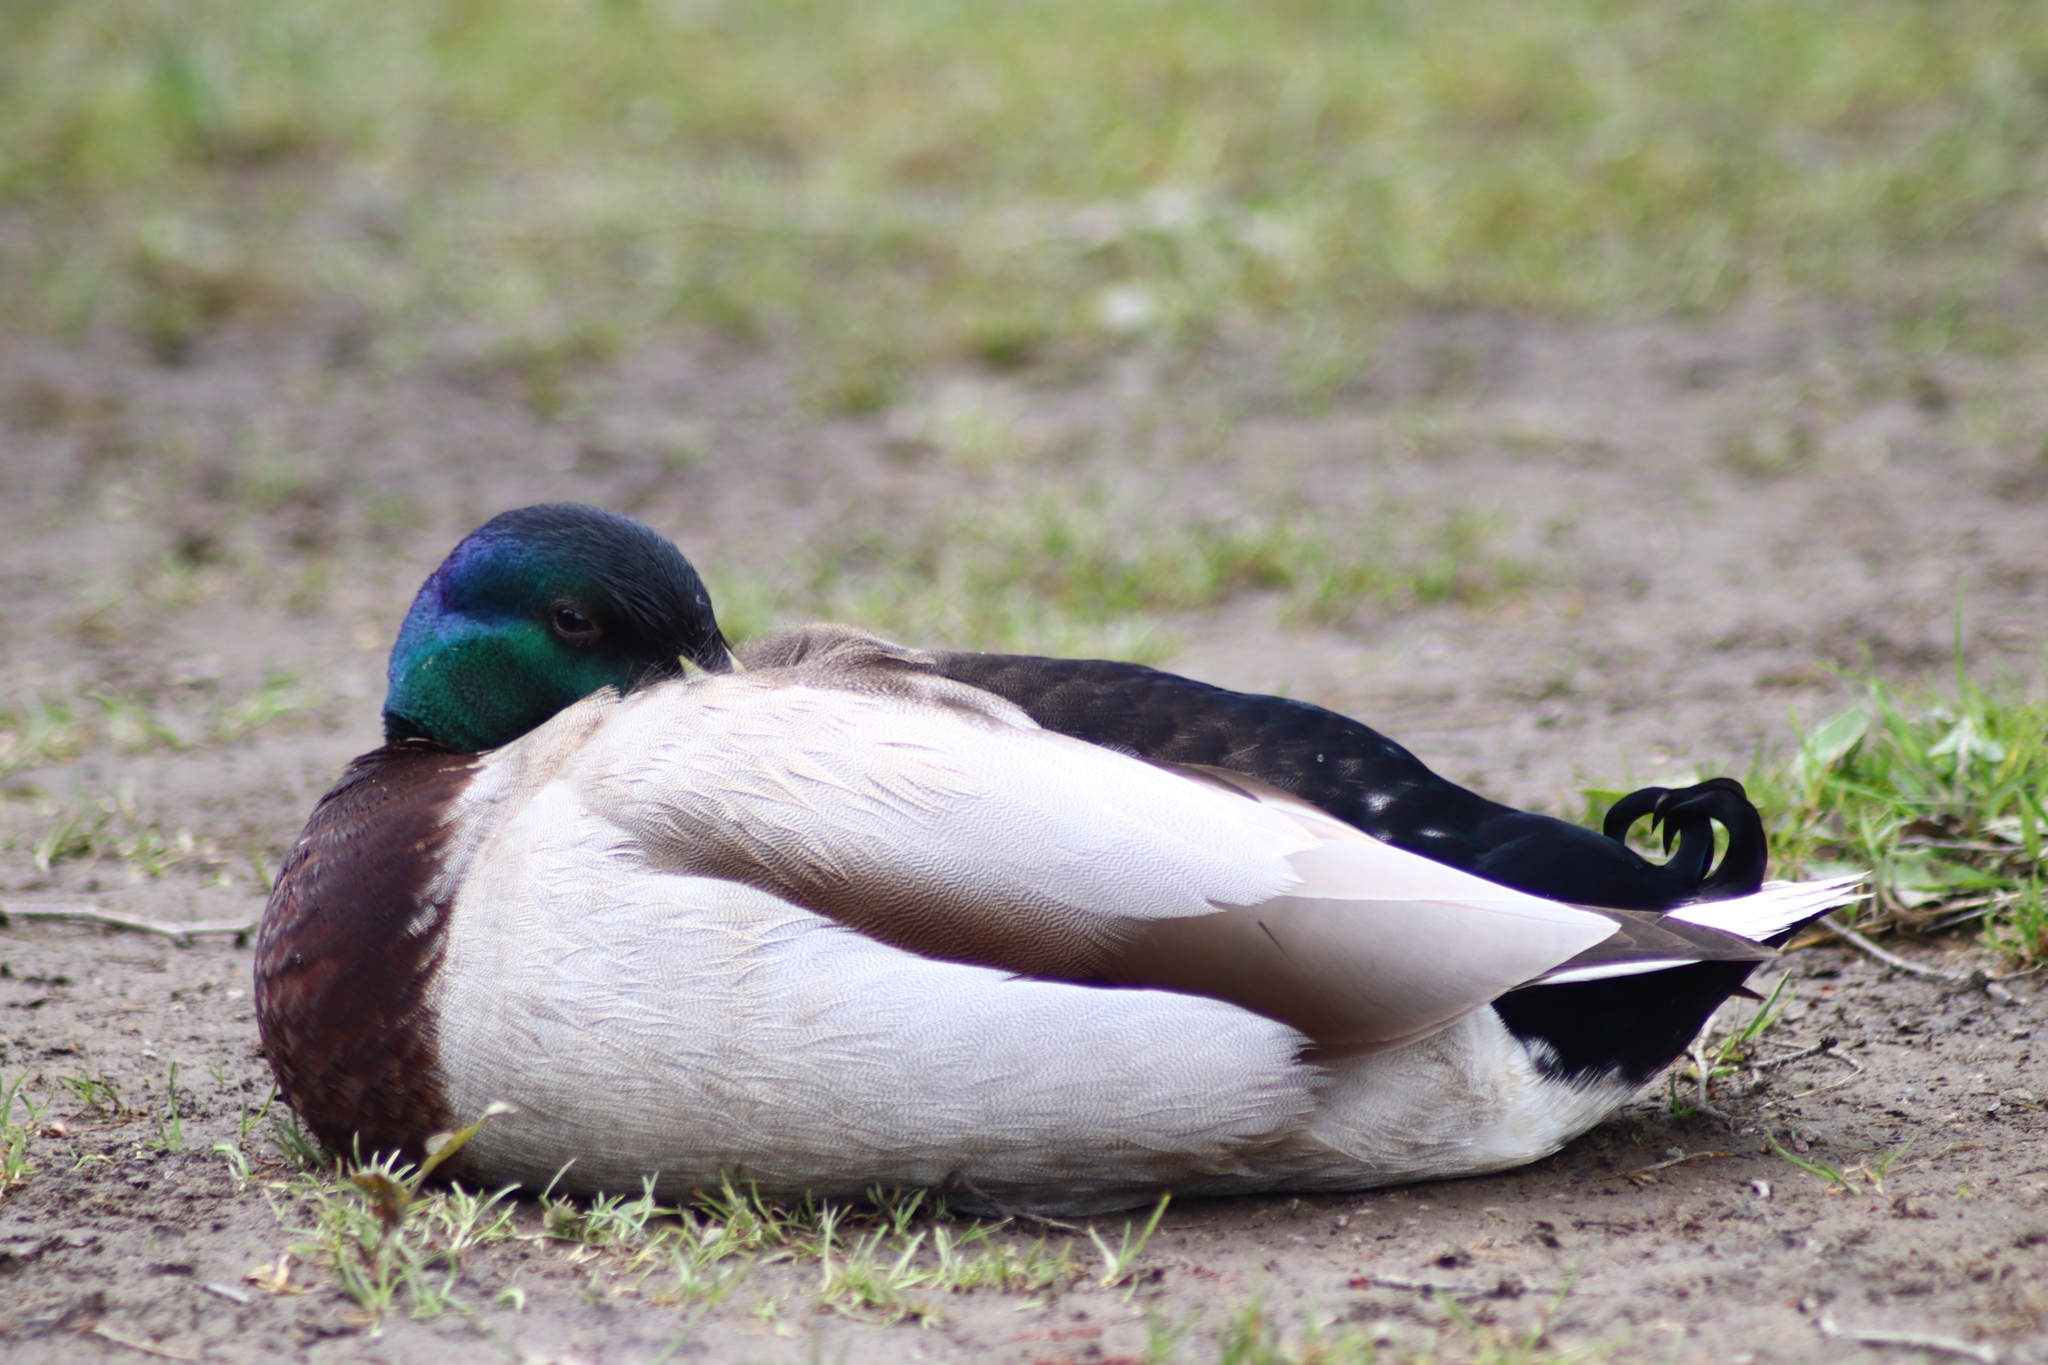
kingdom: Animalia
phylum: Chordata
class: Aves
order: Anseriformes
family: Anatidae
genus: Anas
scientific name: Anas platyrhynchos
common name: Mallard
